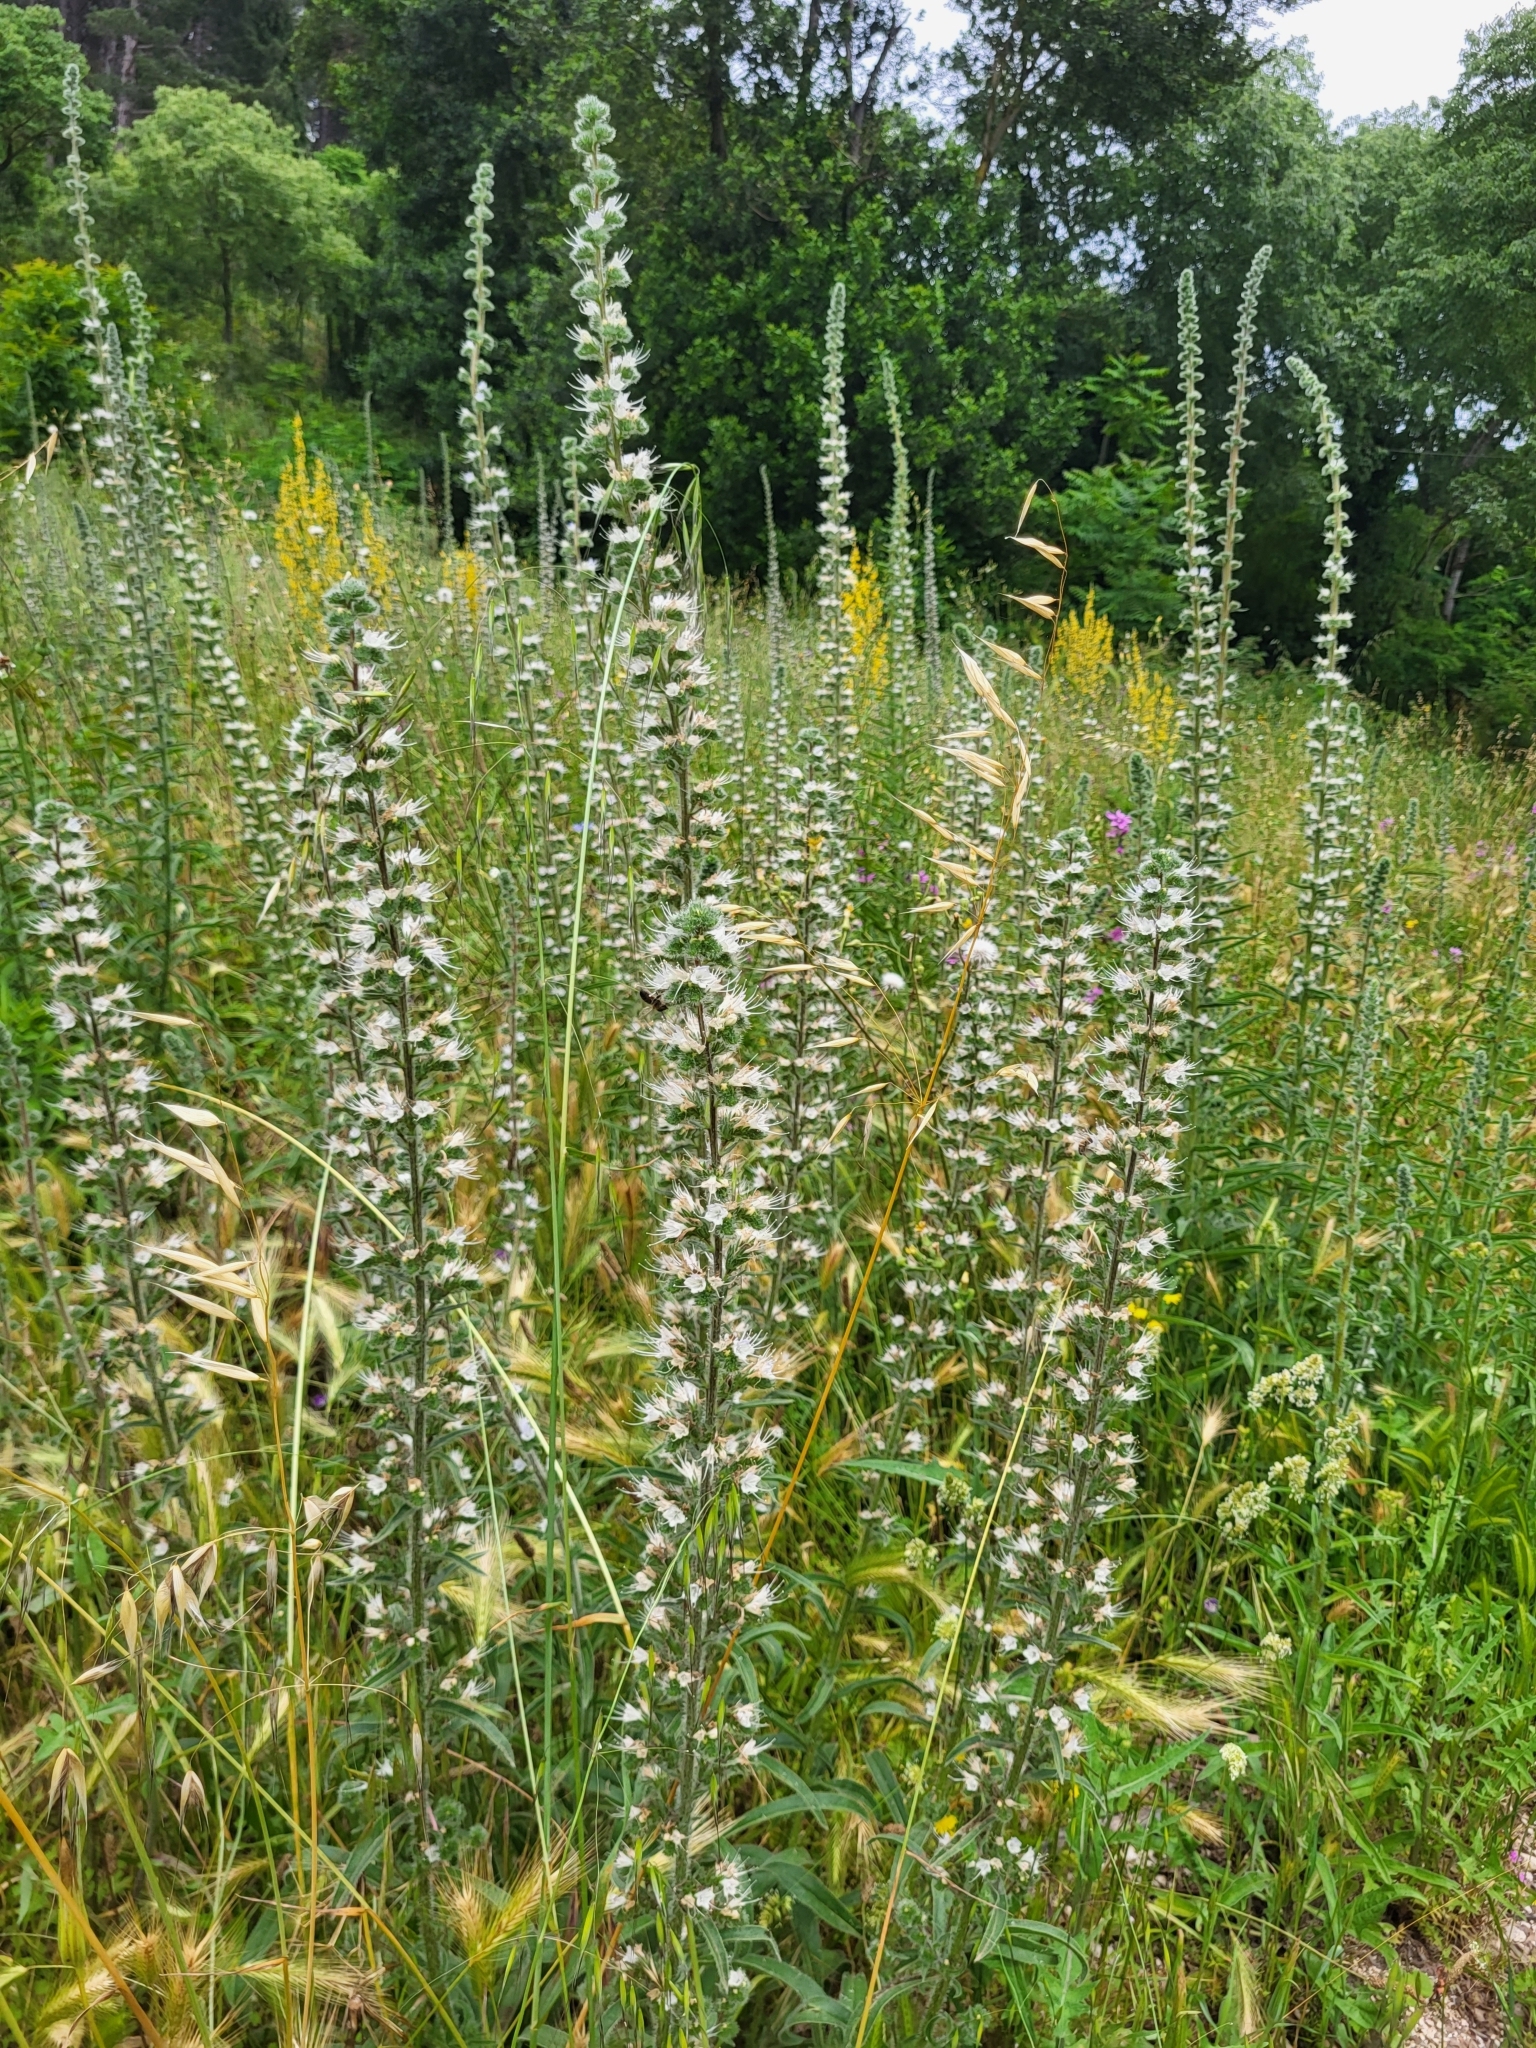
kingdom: Plantae
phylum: Tracheophyta
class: Magnoliopsida
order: Boraginales
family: Boraginaceae
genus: Echium
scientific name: Echium italicum
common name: Italian viper's bugloss
